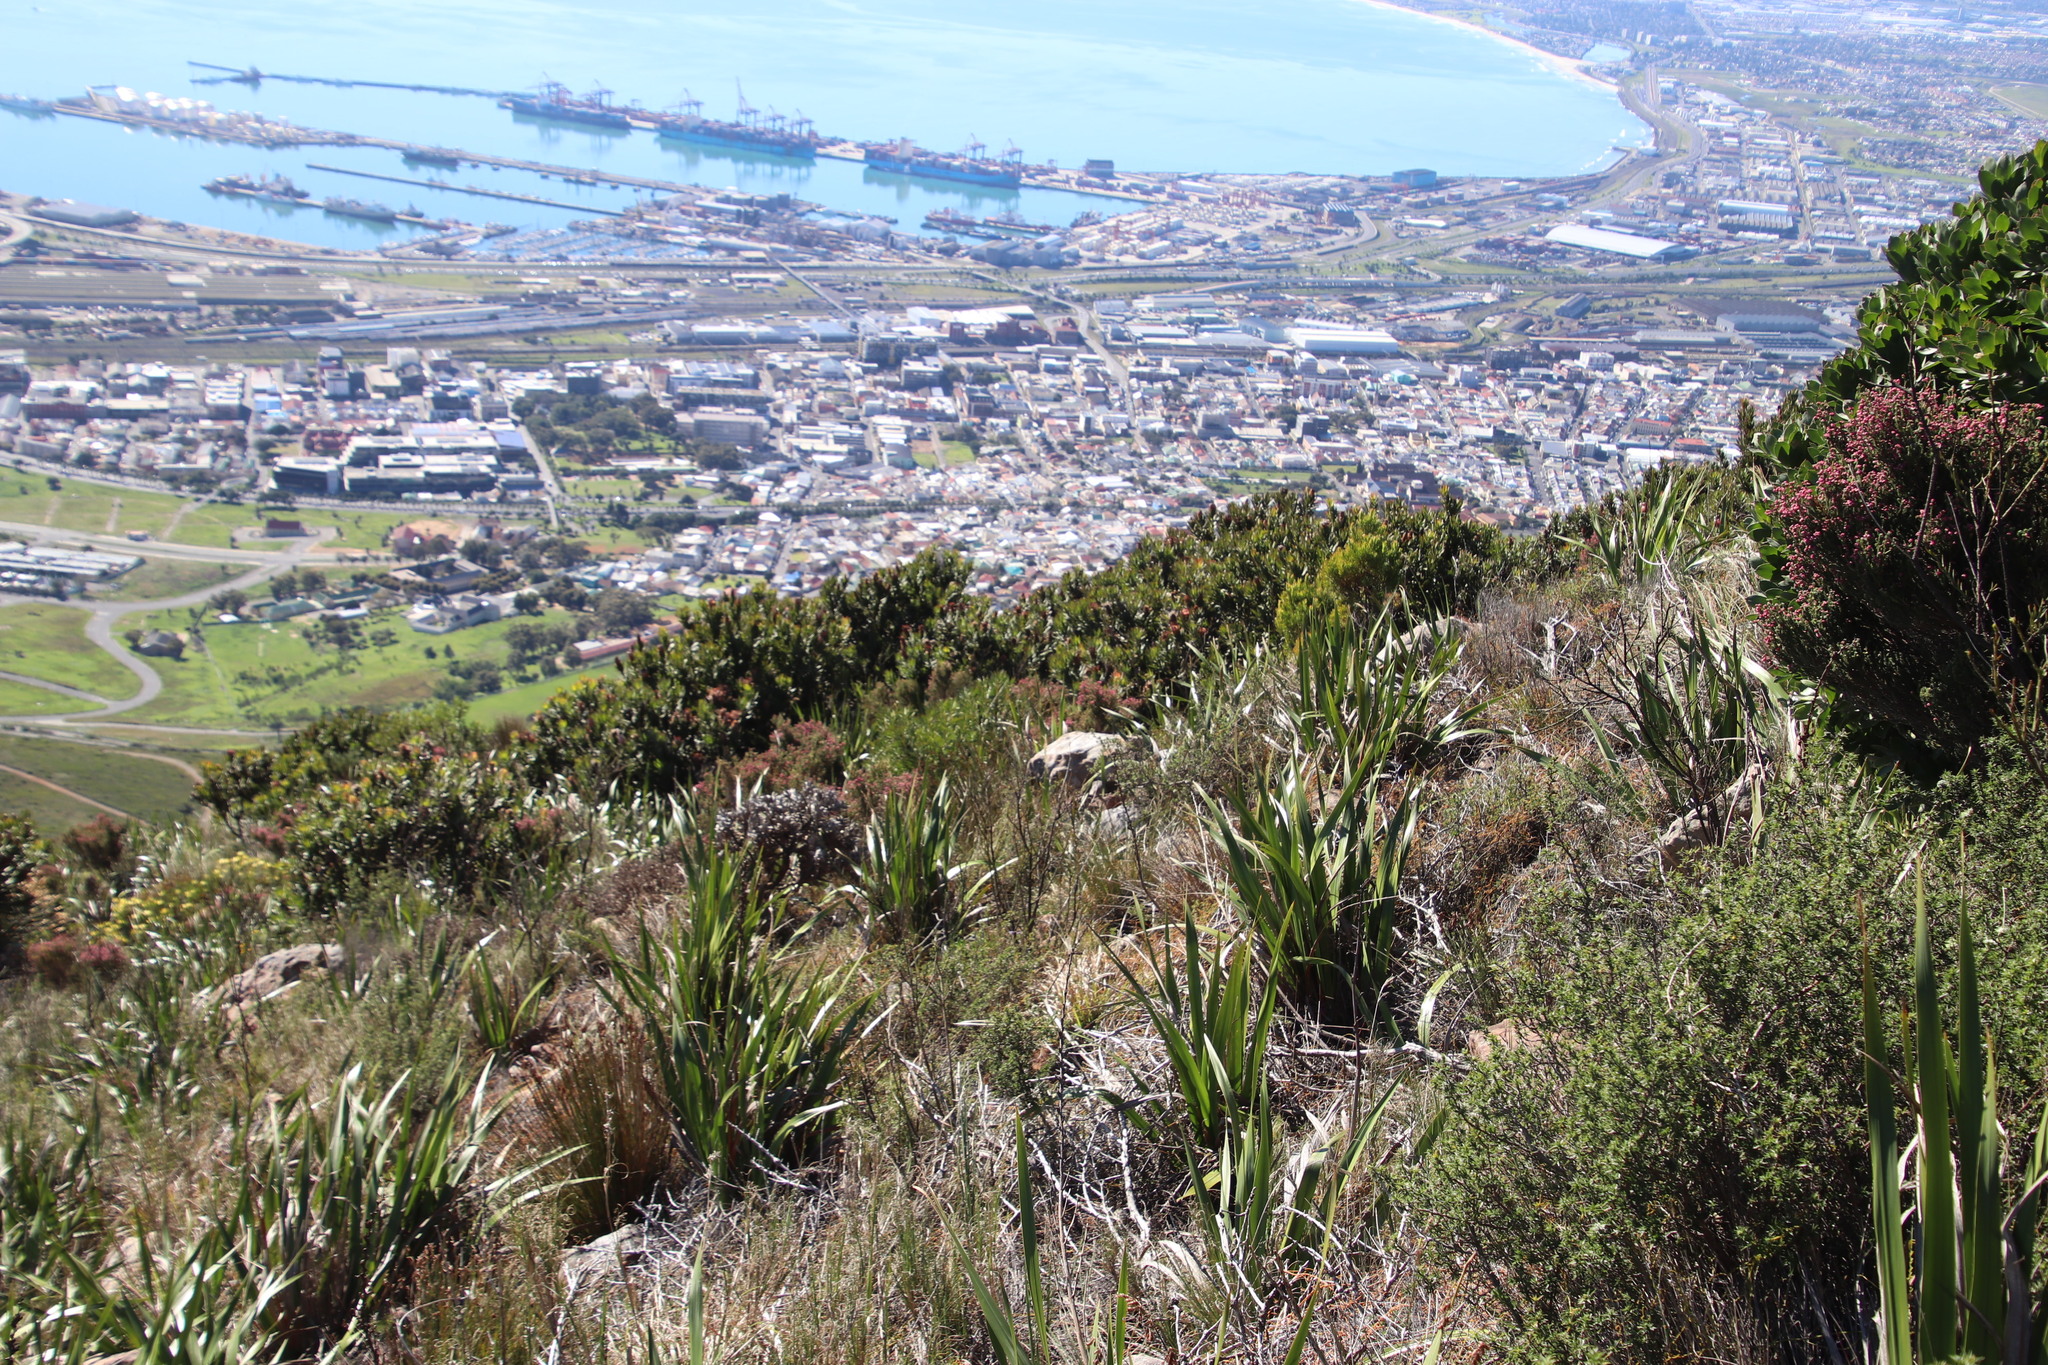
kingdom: Plantae
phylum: Tracheophyta
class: Magnoliopsida
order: Ericales
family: Ericaceae
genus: Erica
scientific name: Erica baccans
